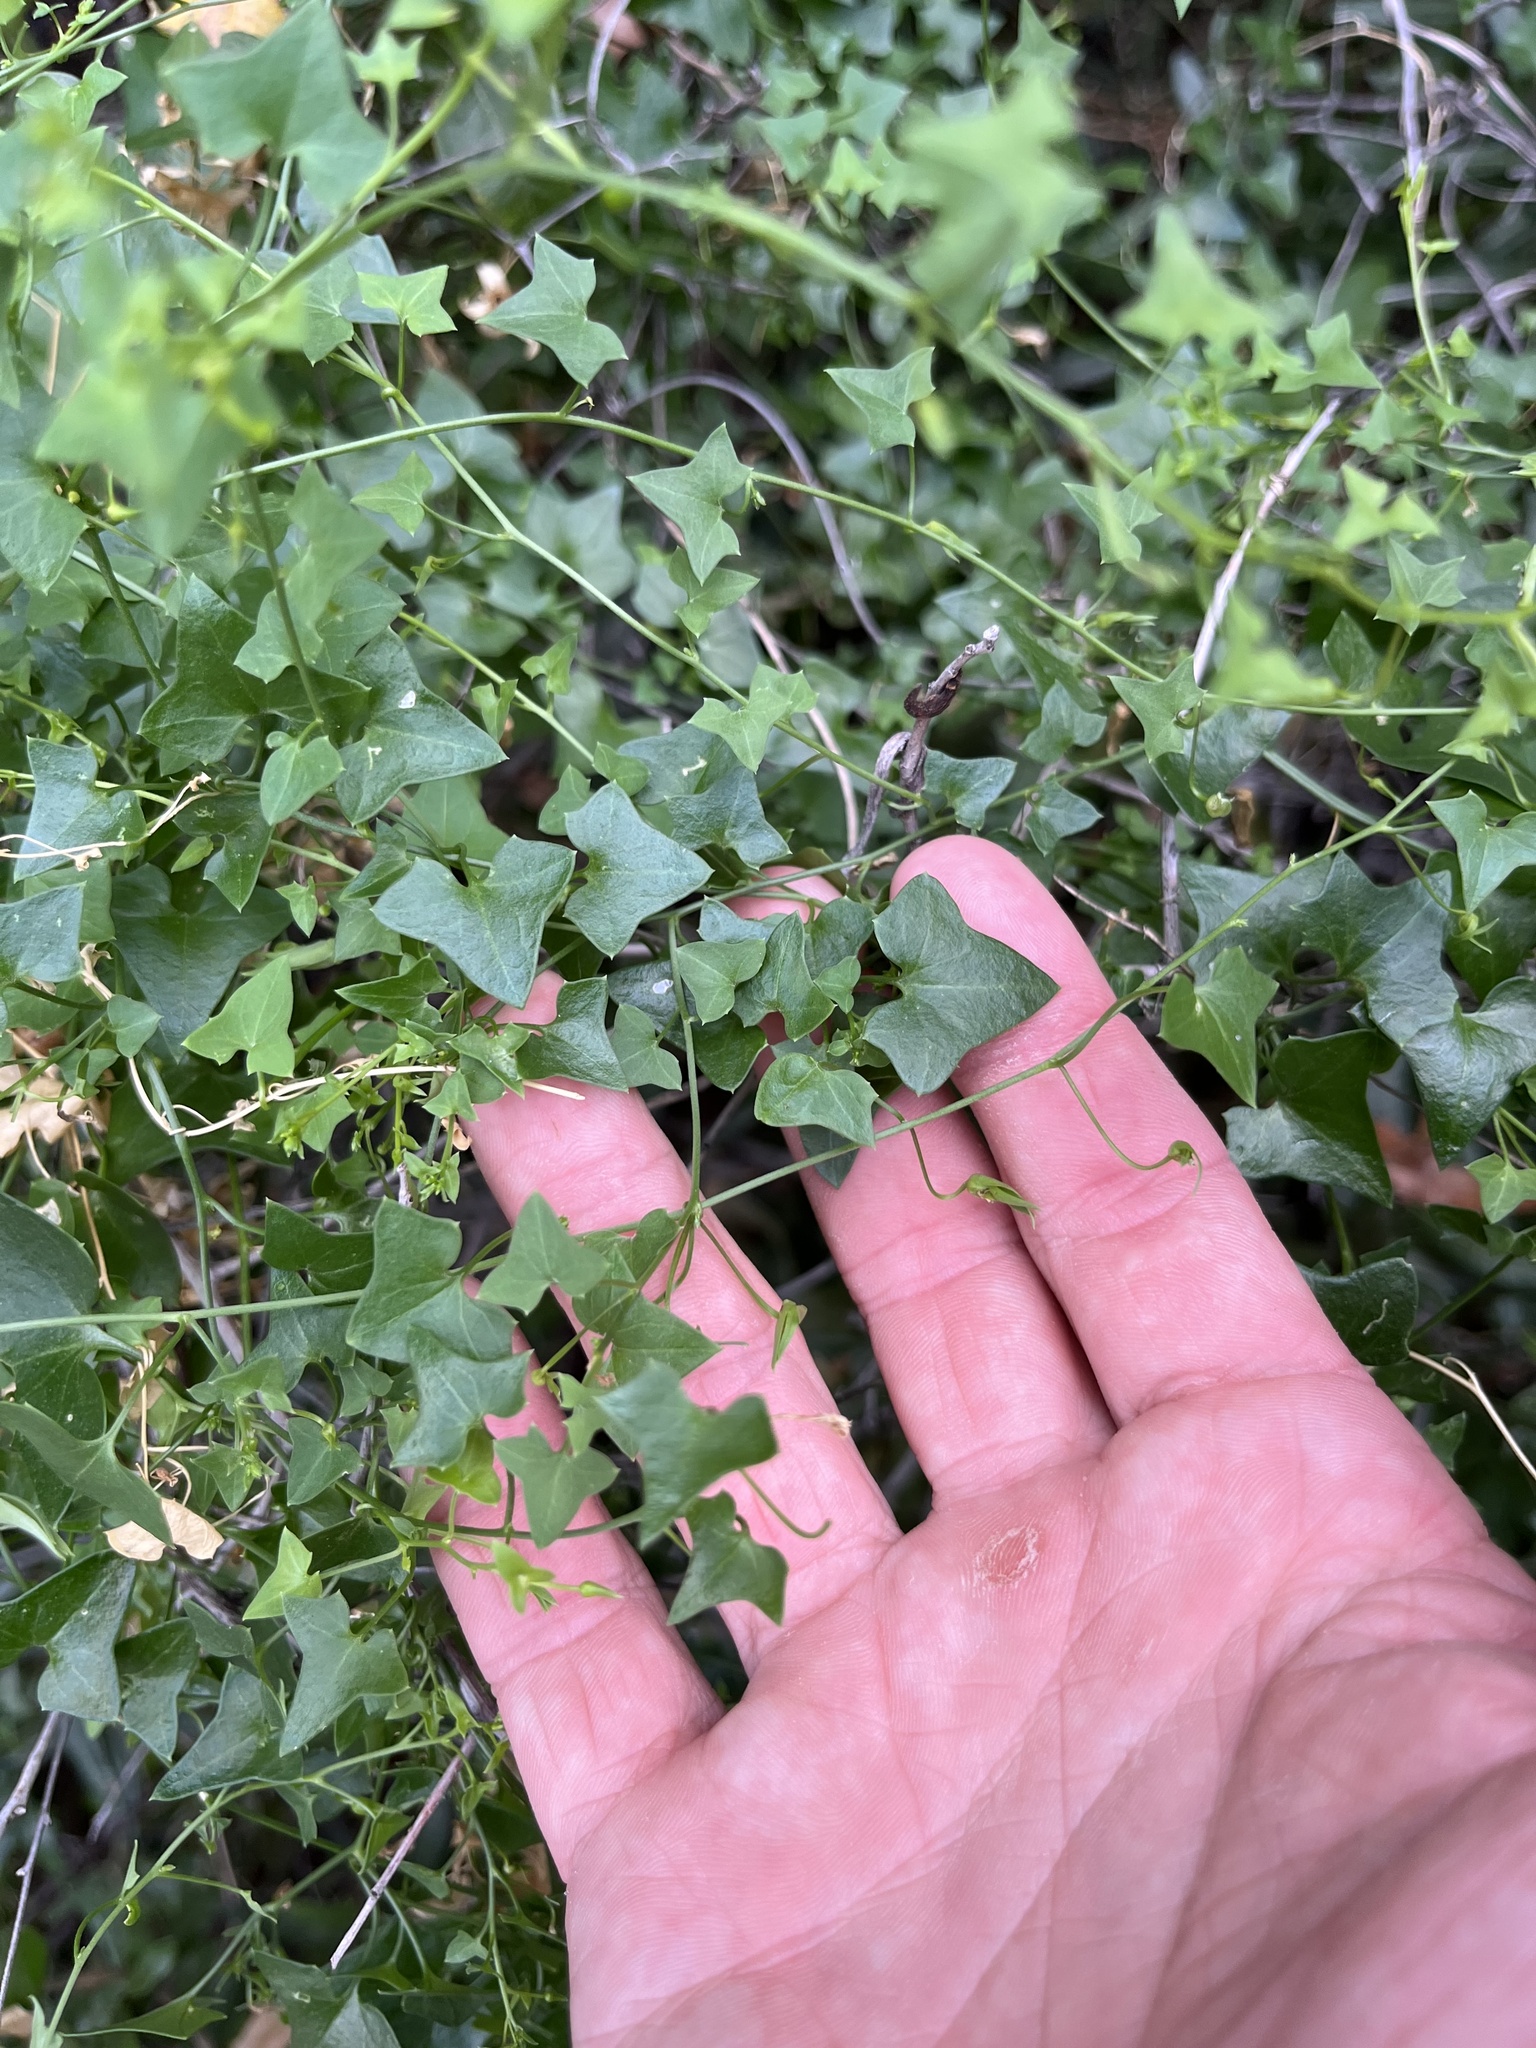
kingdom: Plantae
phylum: Tracheophyta
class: Magnoliopsida
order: Lamiales
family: Plantaginaceae
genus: Maurandella
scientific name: Maurandella antirrhiniflora
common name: Violet twining-snapdragon
